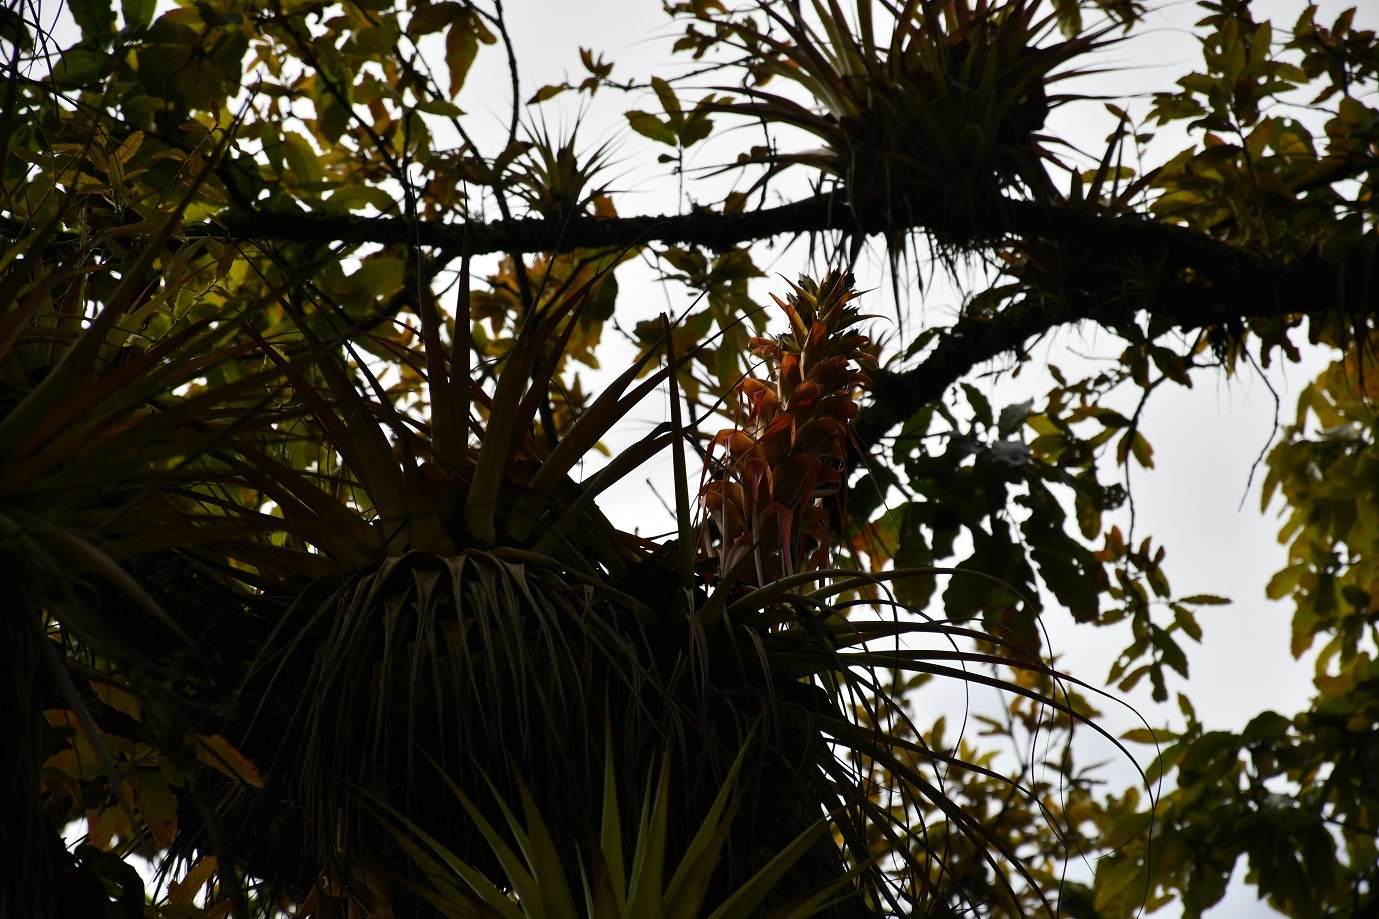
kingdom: Plantae
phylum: Tracheophyta
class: Liliopsida
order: Poales
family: Bromeliaceae
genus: Tillandsia
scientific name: Tillandsia carlos-hankii
